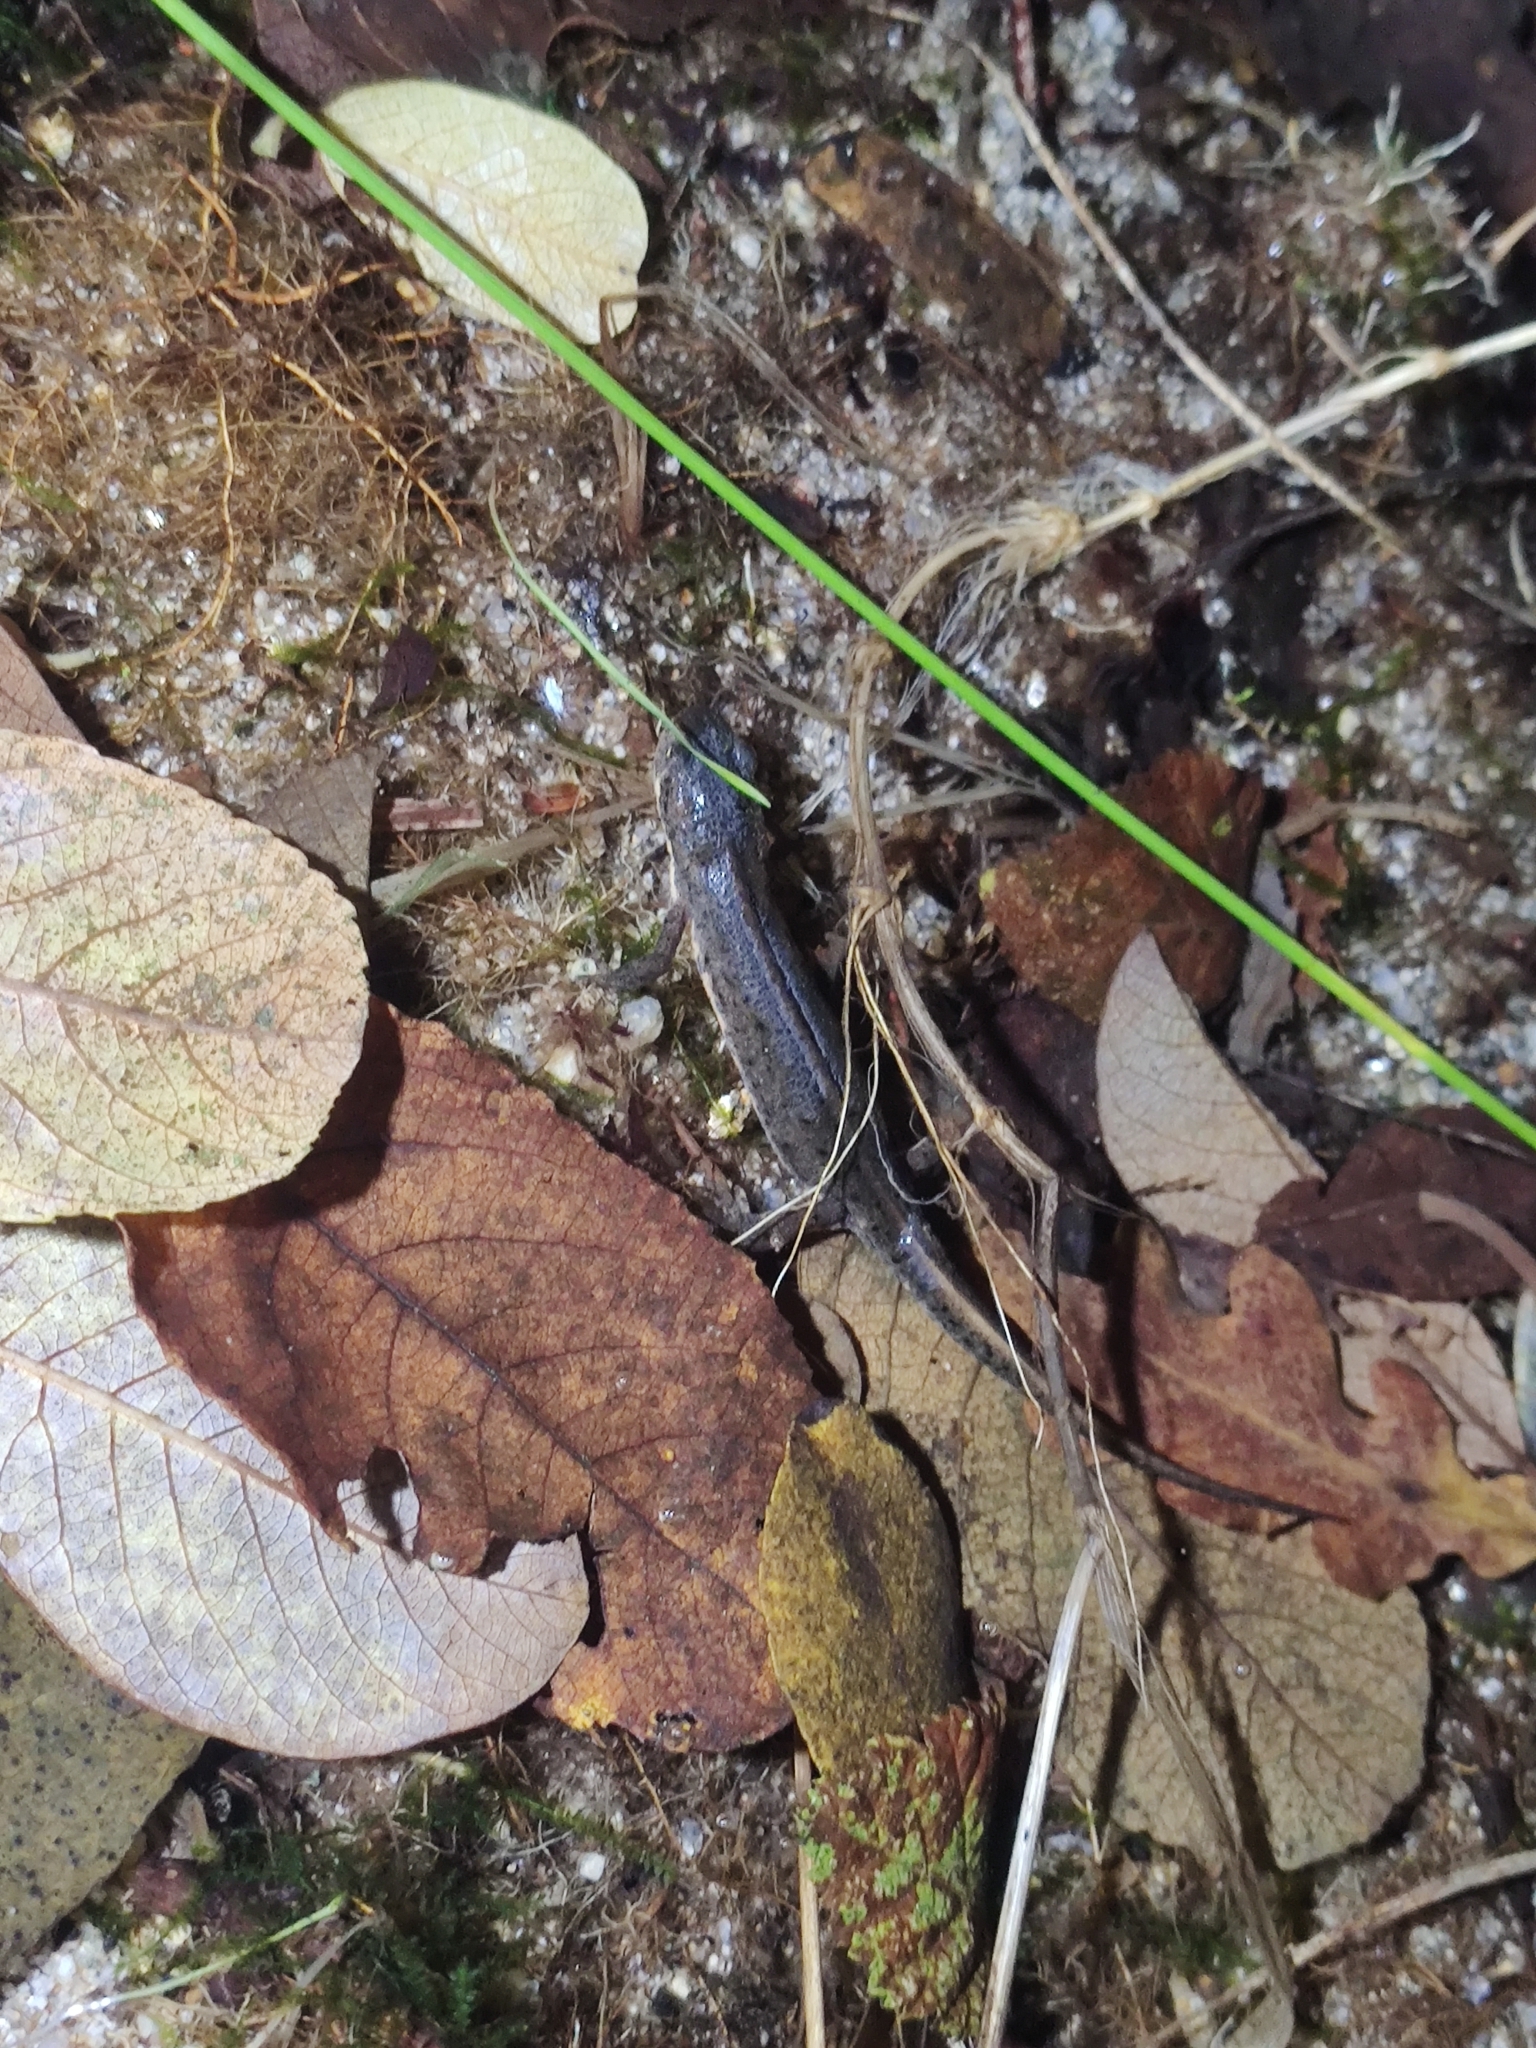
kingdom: Animalia
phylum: Chordata
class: Amphibia
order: Caudata
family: Salamandridae
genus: Lissotriton
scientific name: Lissotriton boscai
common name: Bosca's newt
